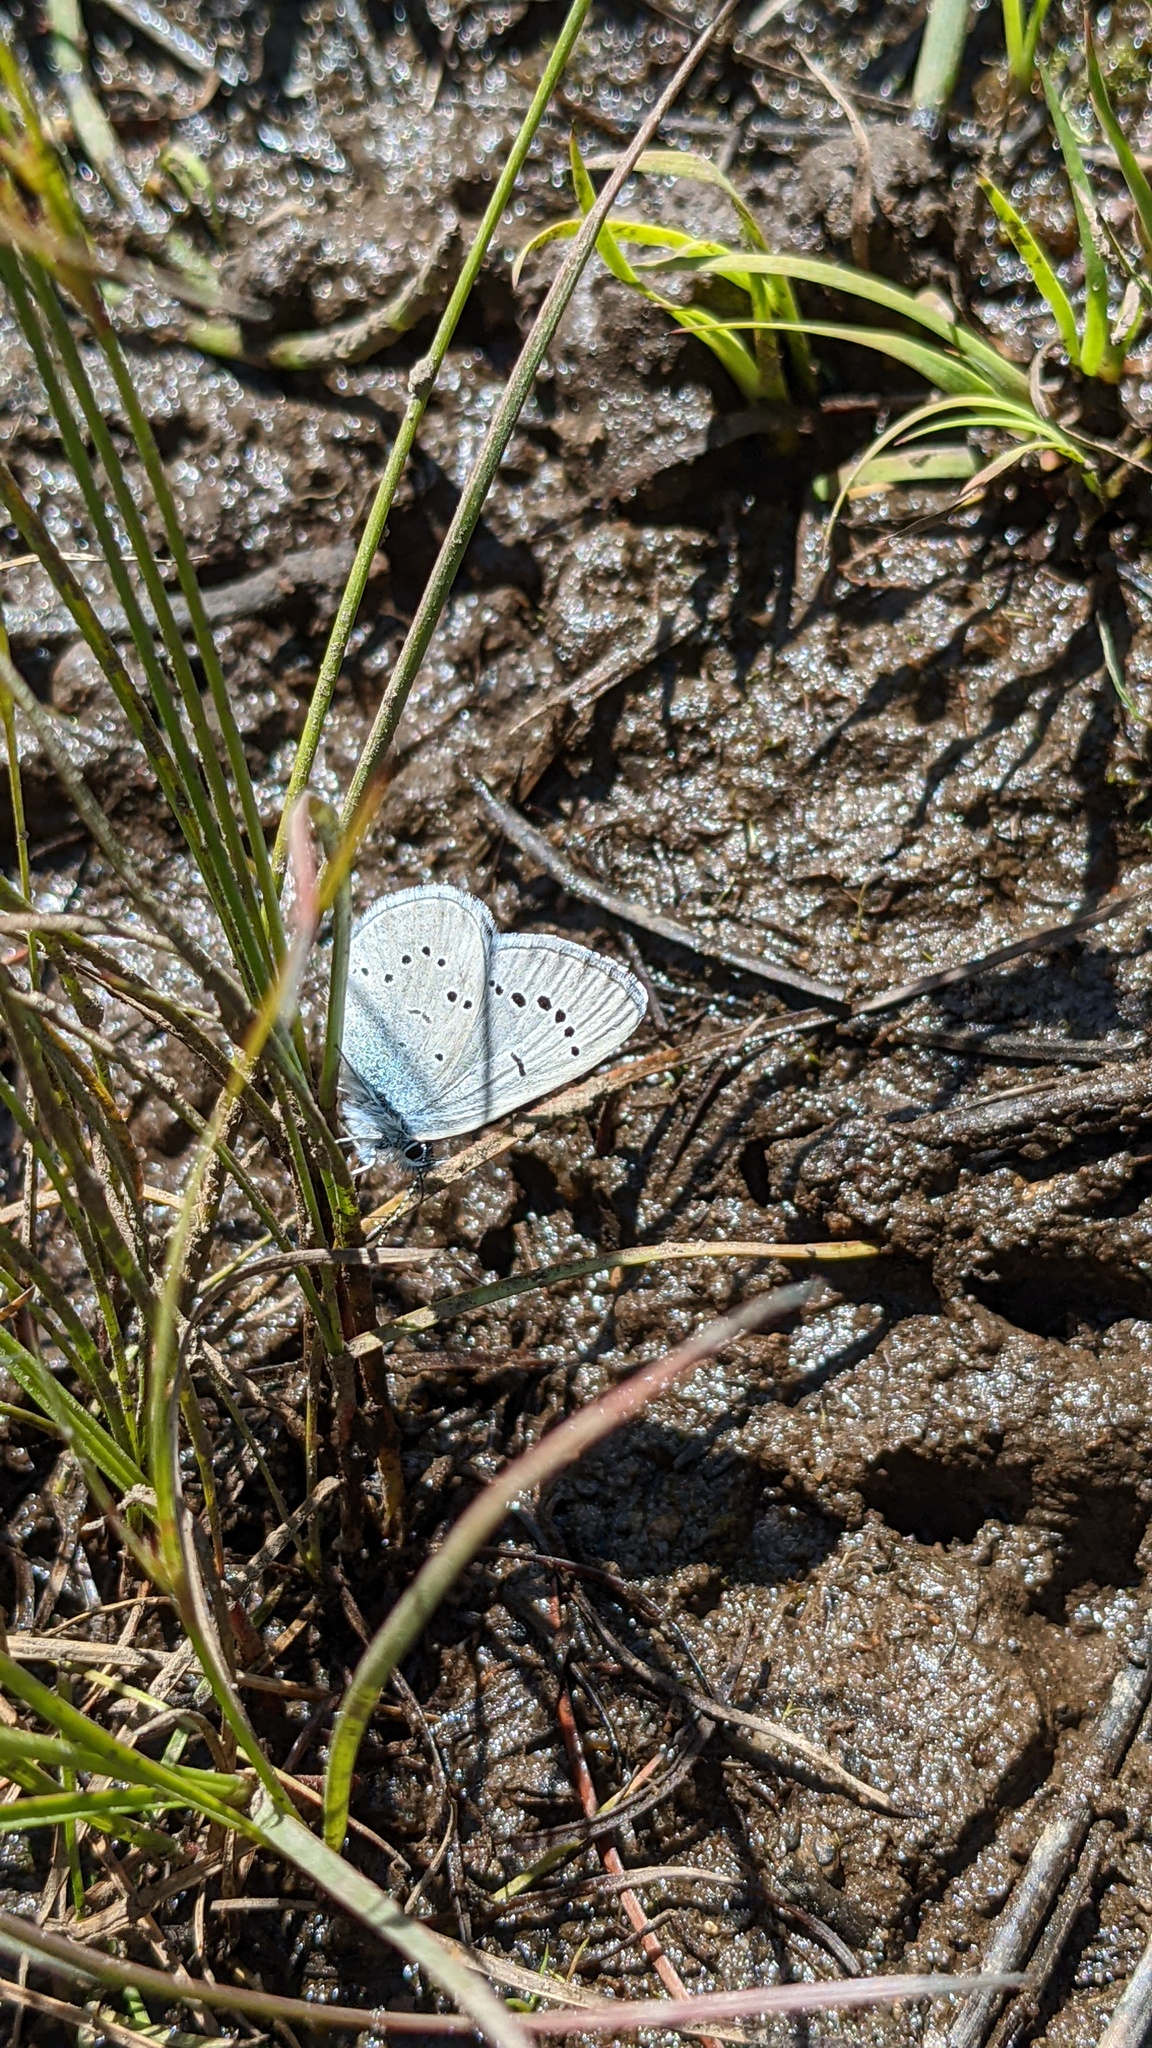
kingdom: Animalia
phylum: Arthropoda
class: Insecta
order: Lepidoptera
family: Lycaenidae
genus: Glaucopsyche
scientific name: Glaucopsyche lygdamus
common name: Silvery blue
